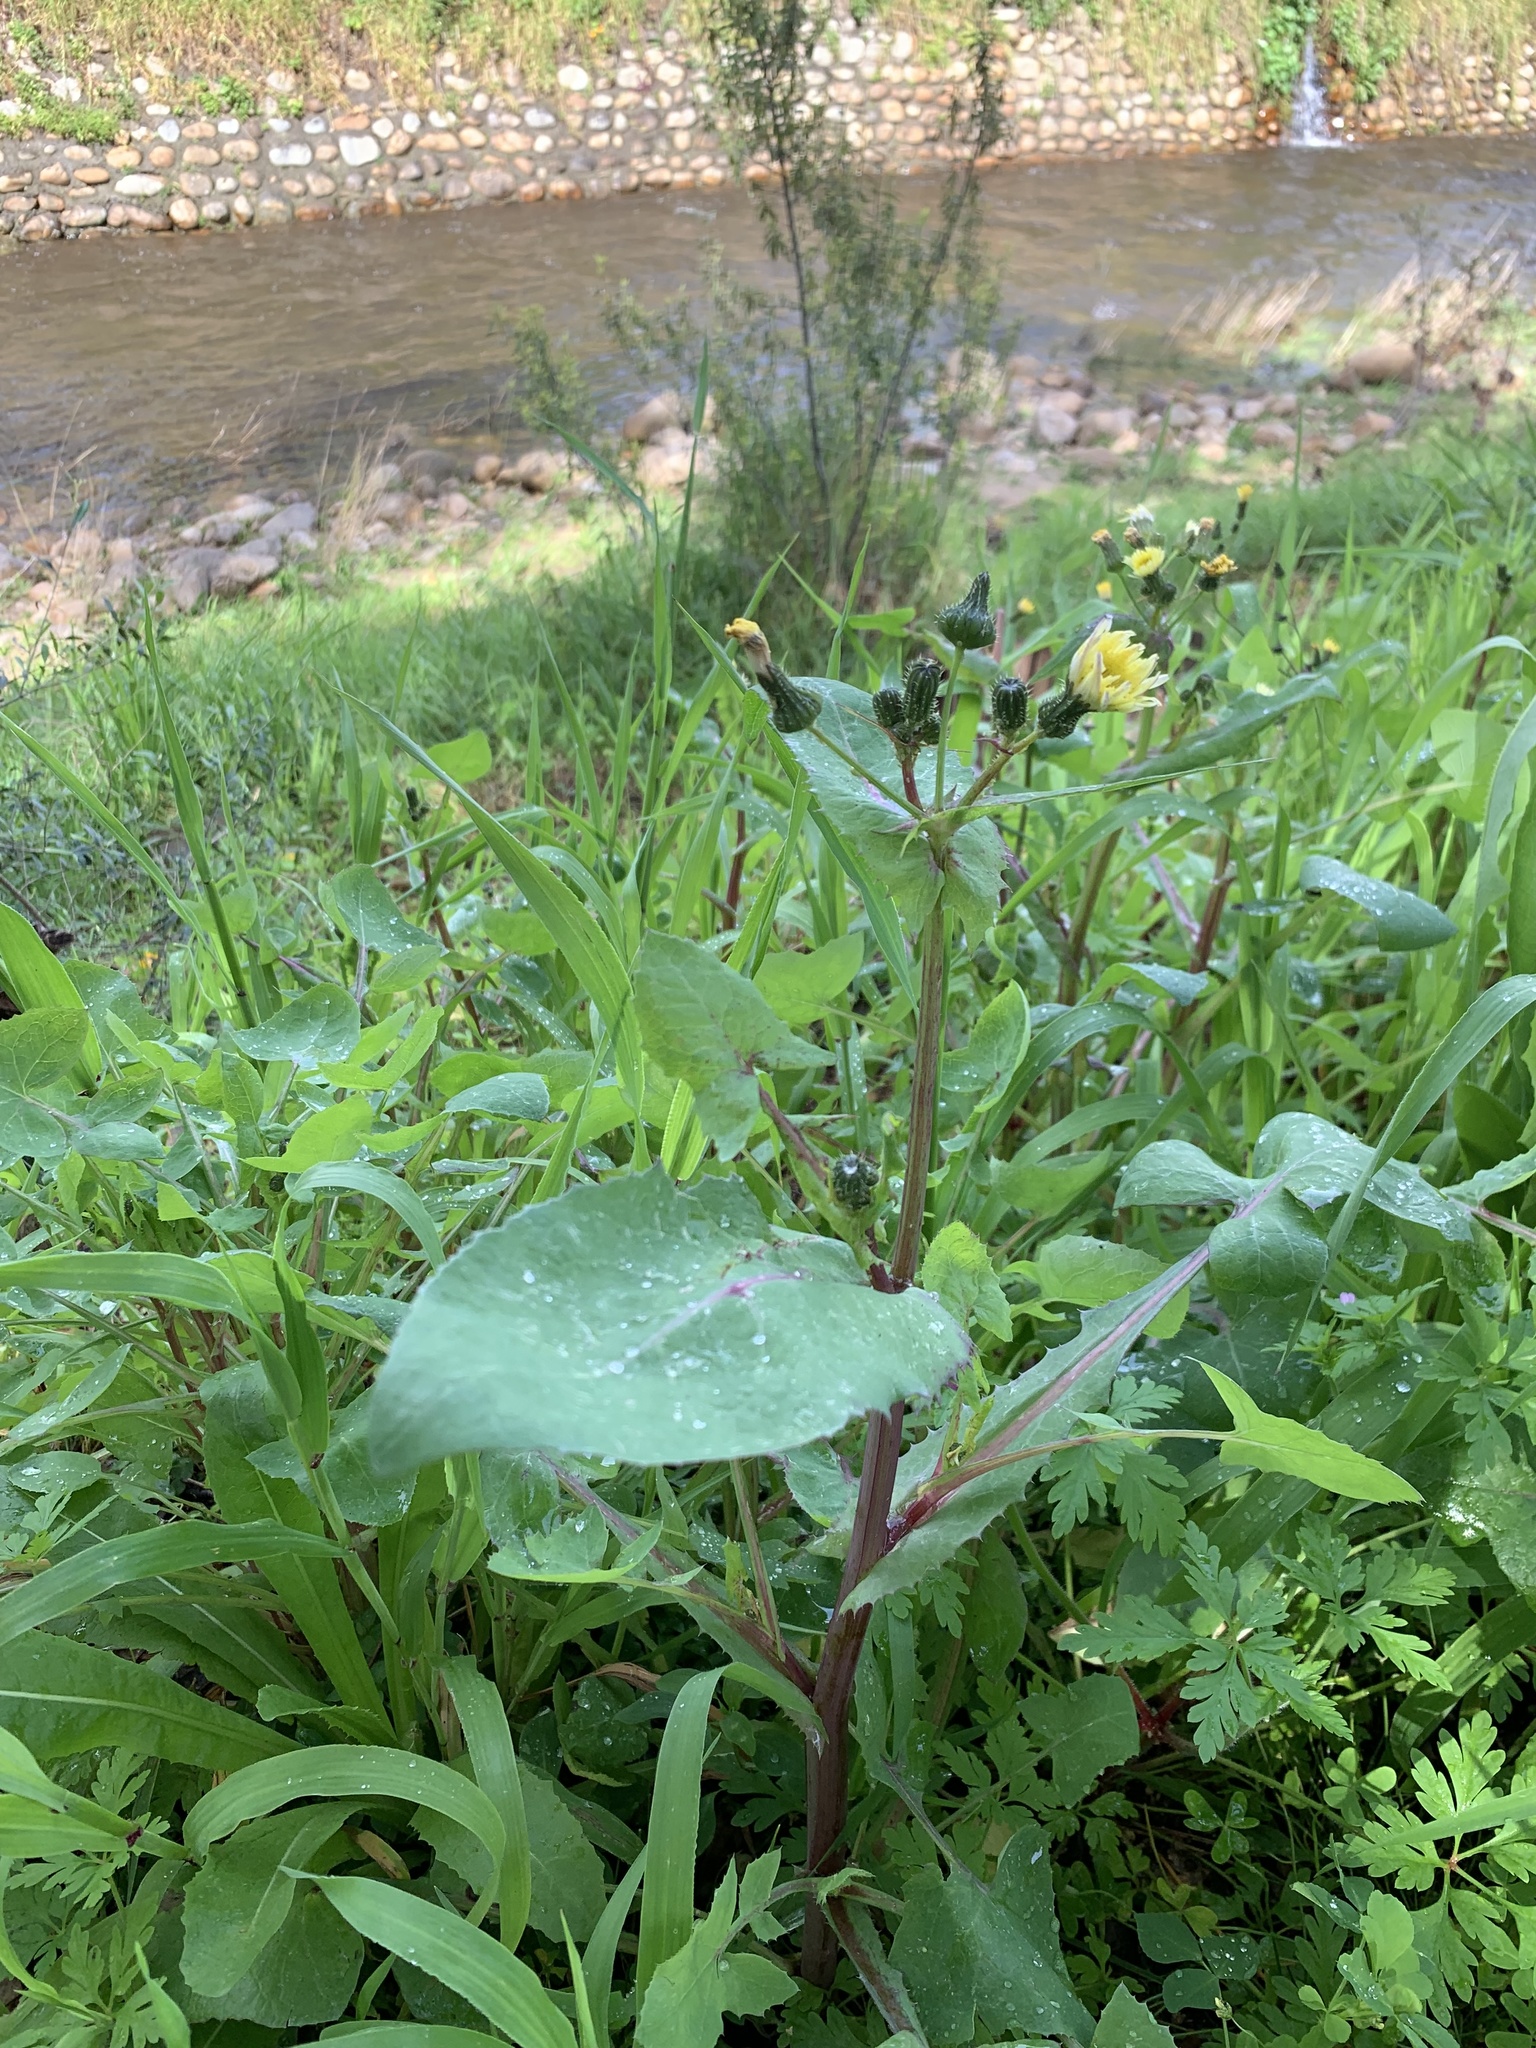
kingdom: Plantae
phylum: Tracheophyta
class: Magnoliopsida
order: Asterales
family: Asteraceae
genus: Sonchus
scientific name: Sonchus oleraceus
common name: Common sowthistle
